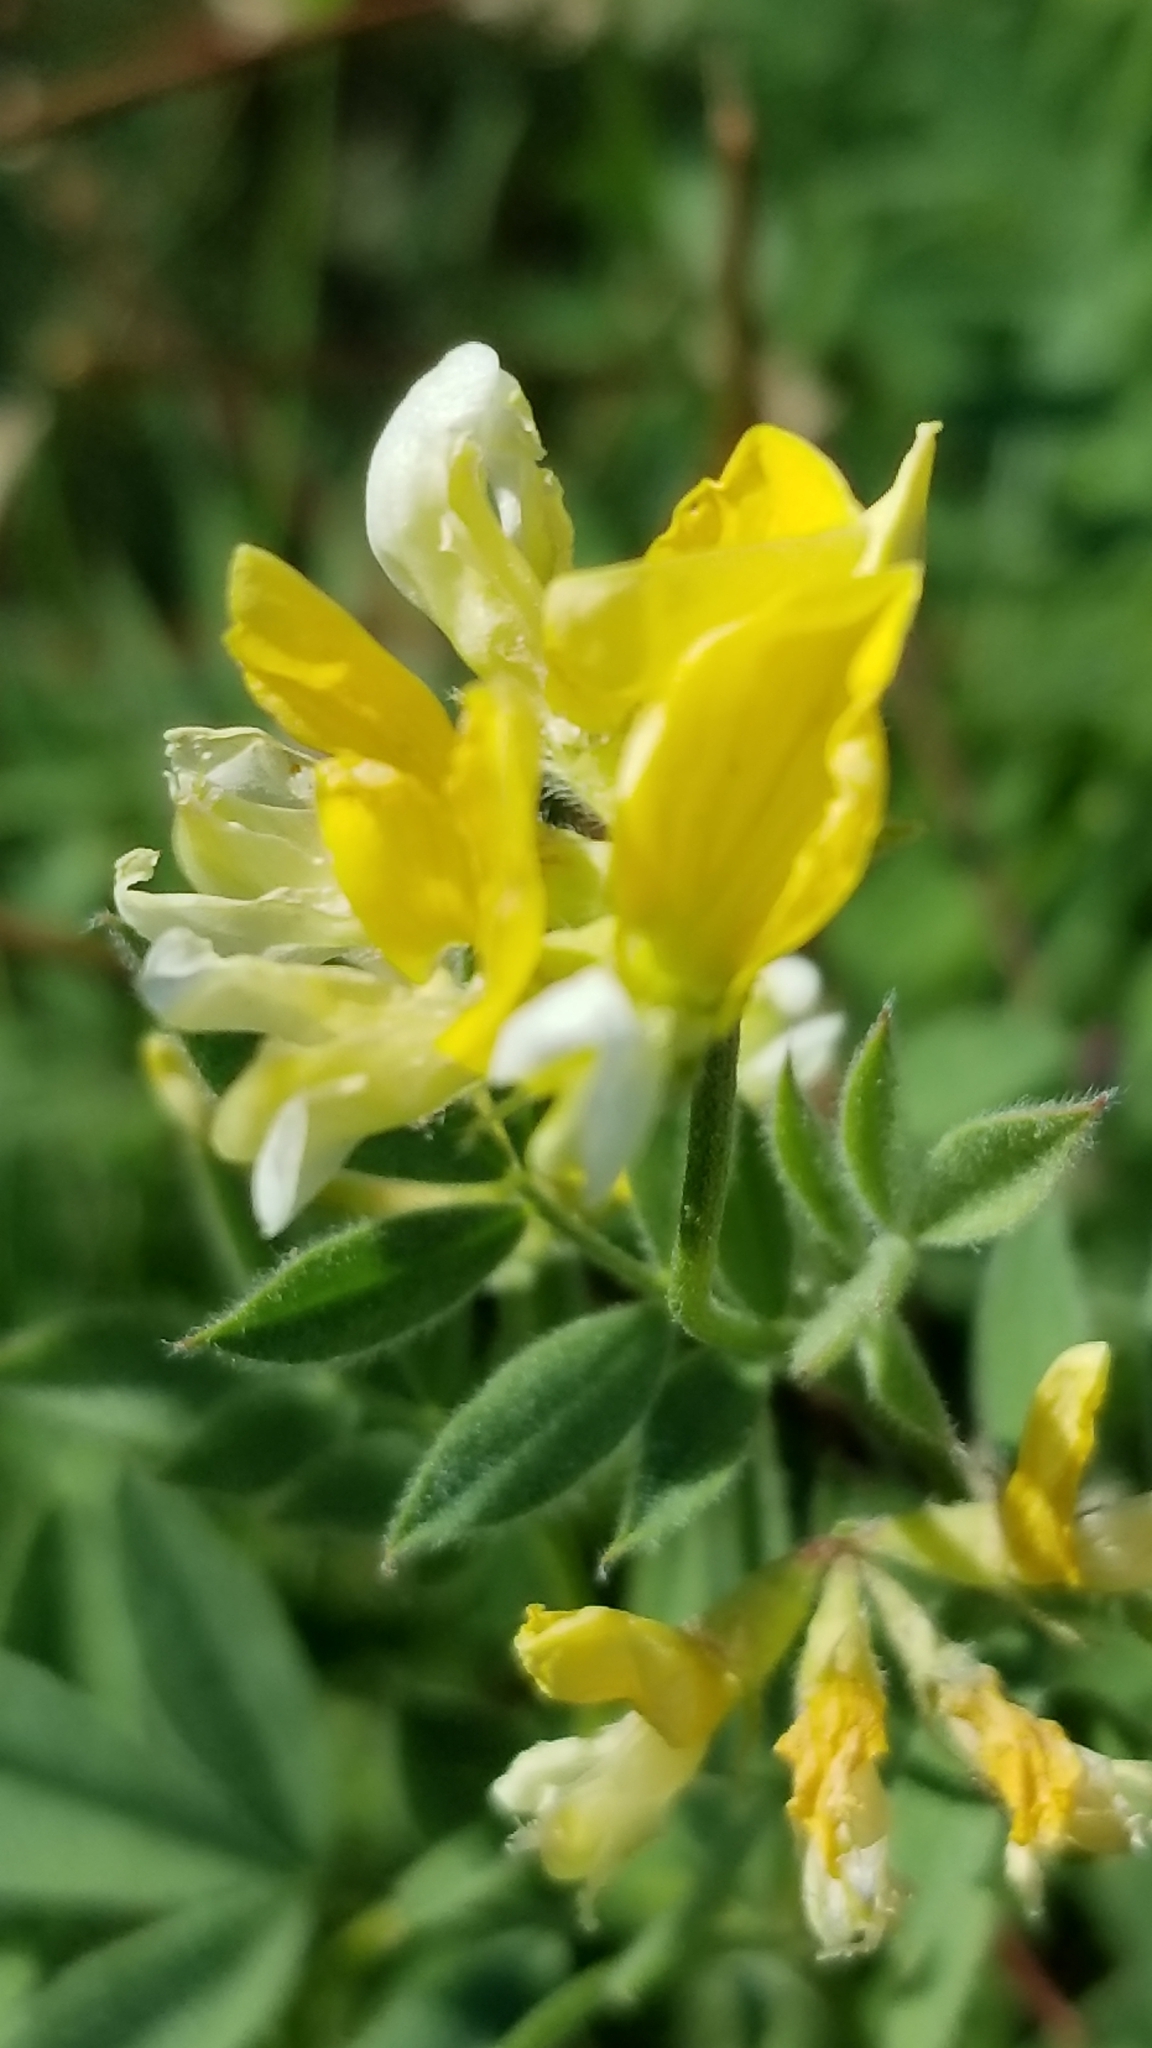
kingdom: Plantae
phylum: Tracheophyta
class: Magnoliopsida
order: Fabales
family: Fabaceae
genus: Hosackia
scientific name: Hosackia oblongifolia
